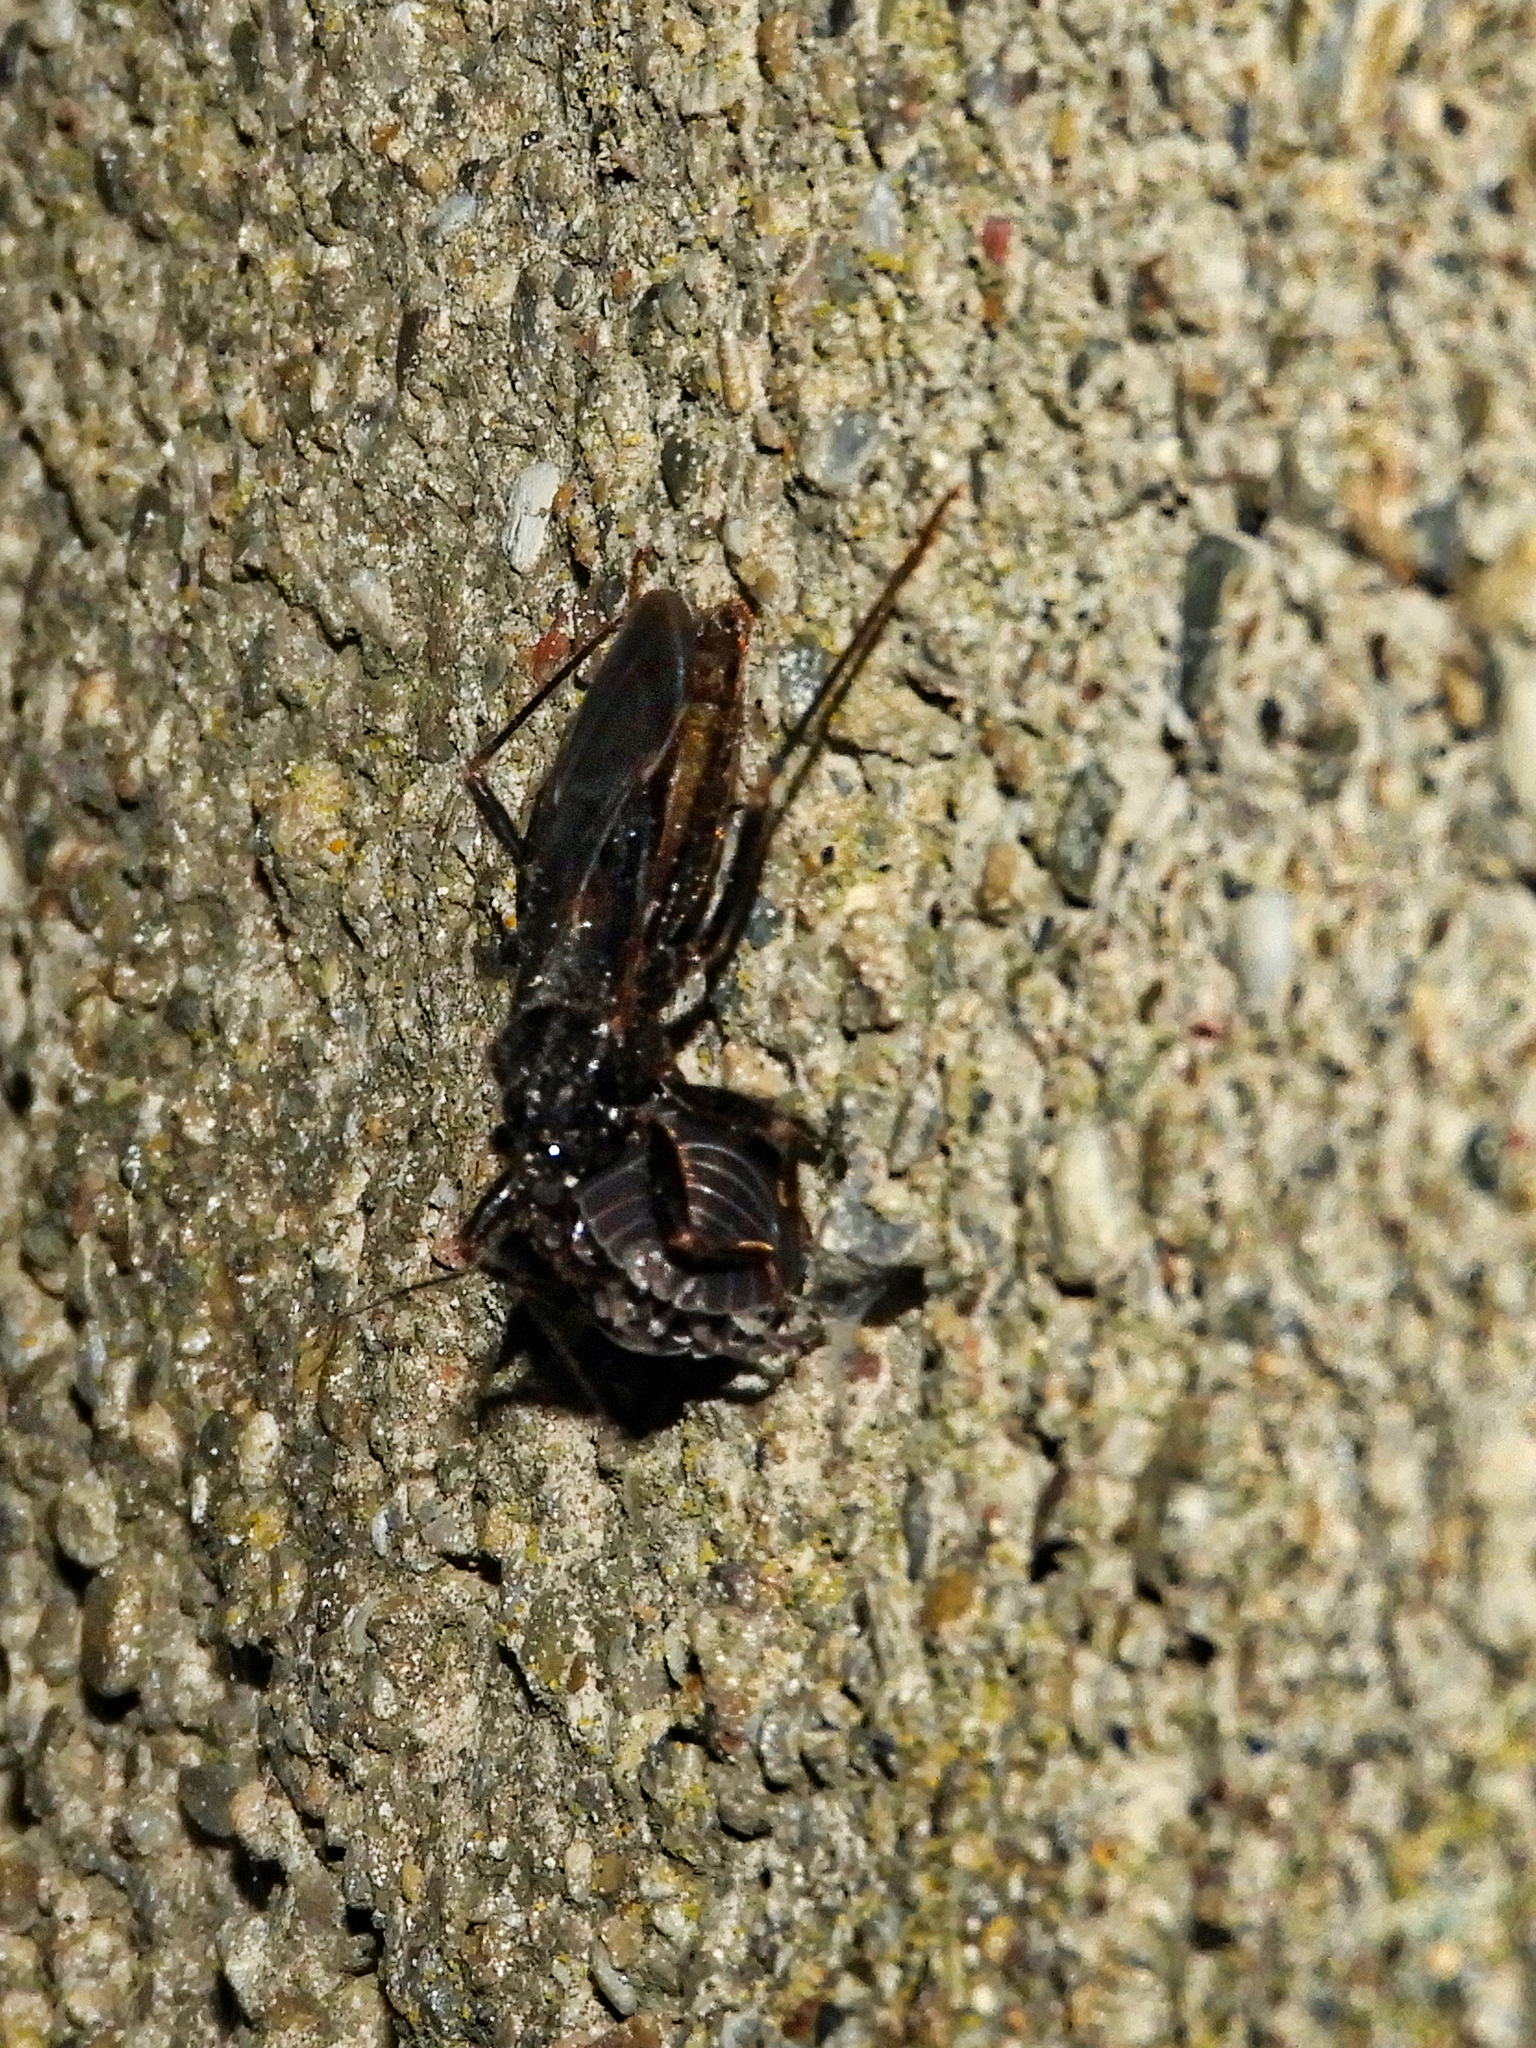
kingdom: Animalia
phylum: Arthropoda
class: Insecta
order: Hemiptera
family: Reduviidae
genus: Reduvius
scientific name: Reduvius personatus
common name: Masked hunter
